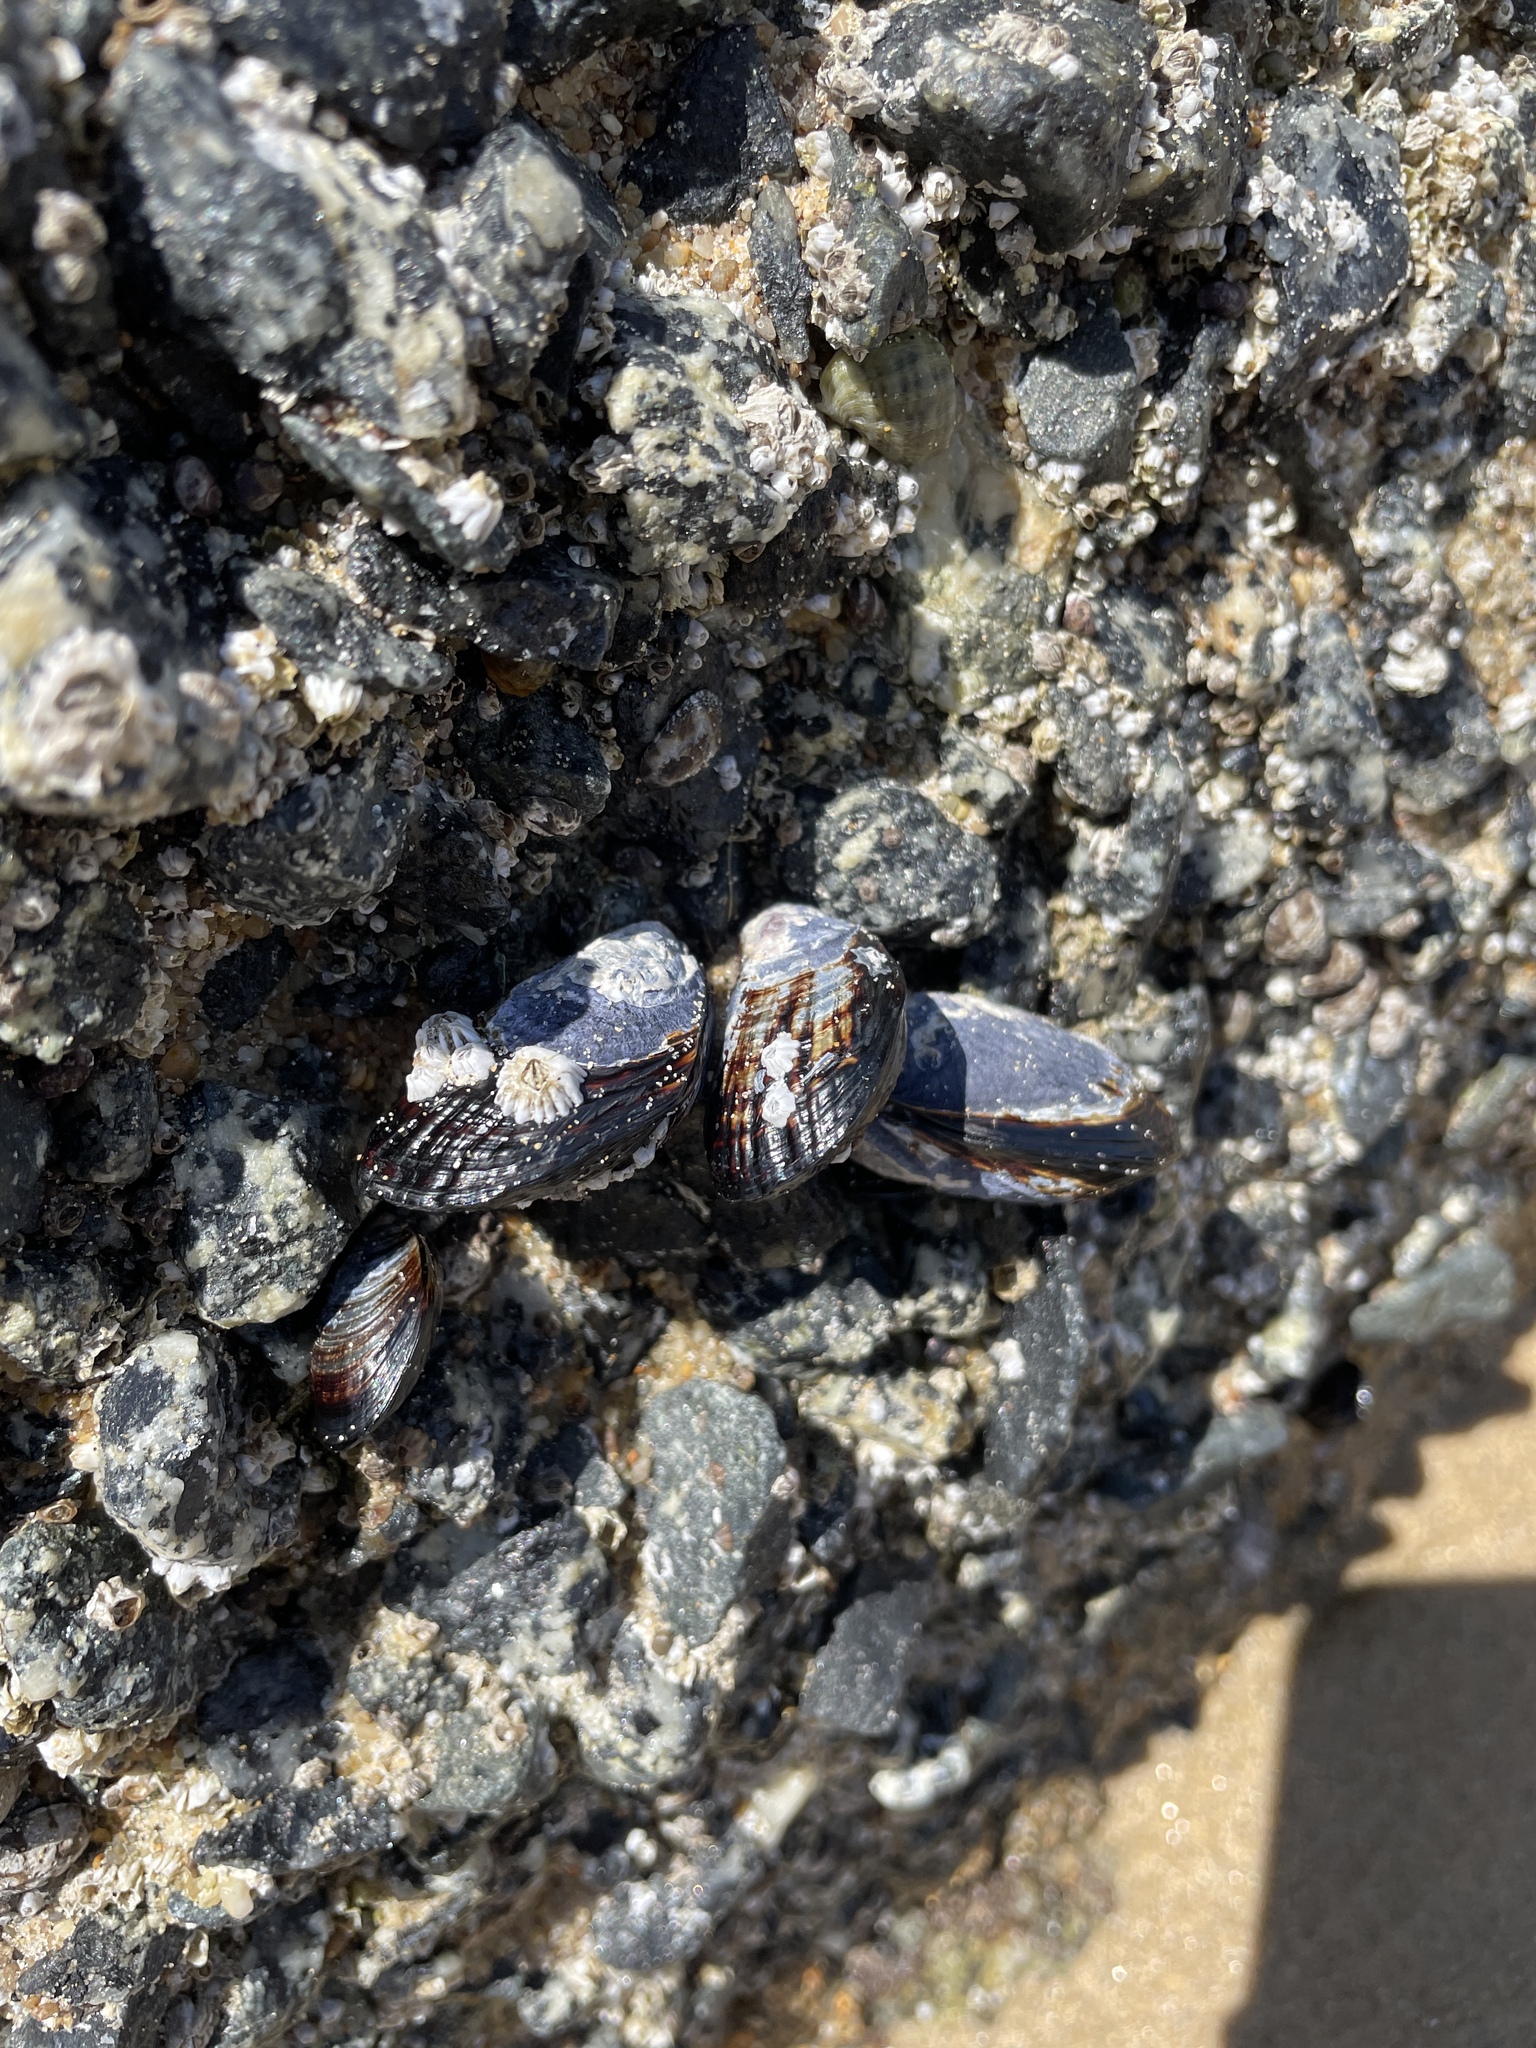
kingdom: Animalia
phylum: Mollusca
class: Bivalvia
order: Mytilida
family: Mytilidae
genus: Mytilus
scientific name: Mytilus californianus
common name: California mussel
